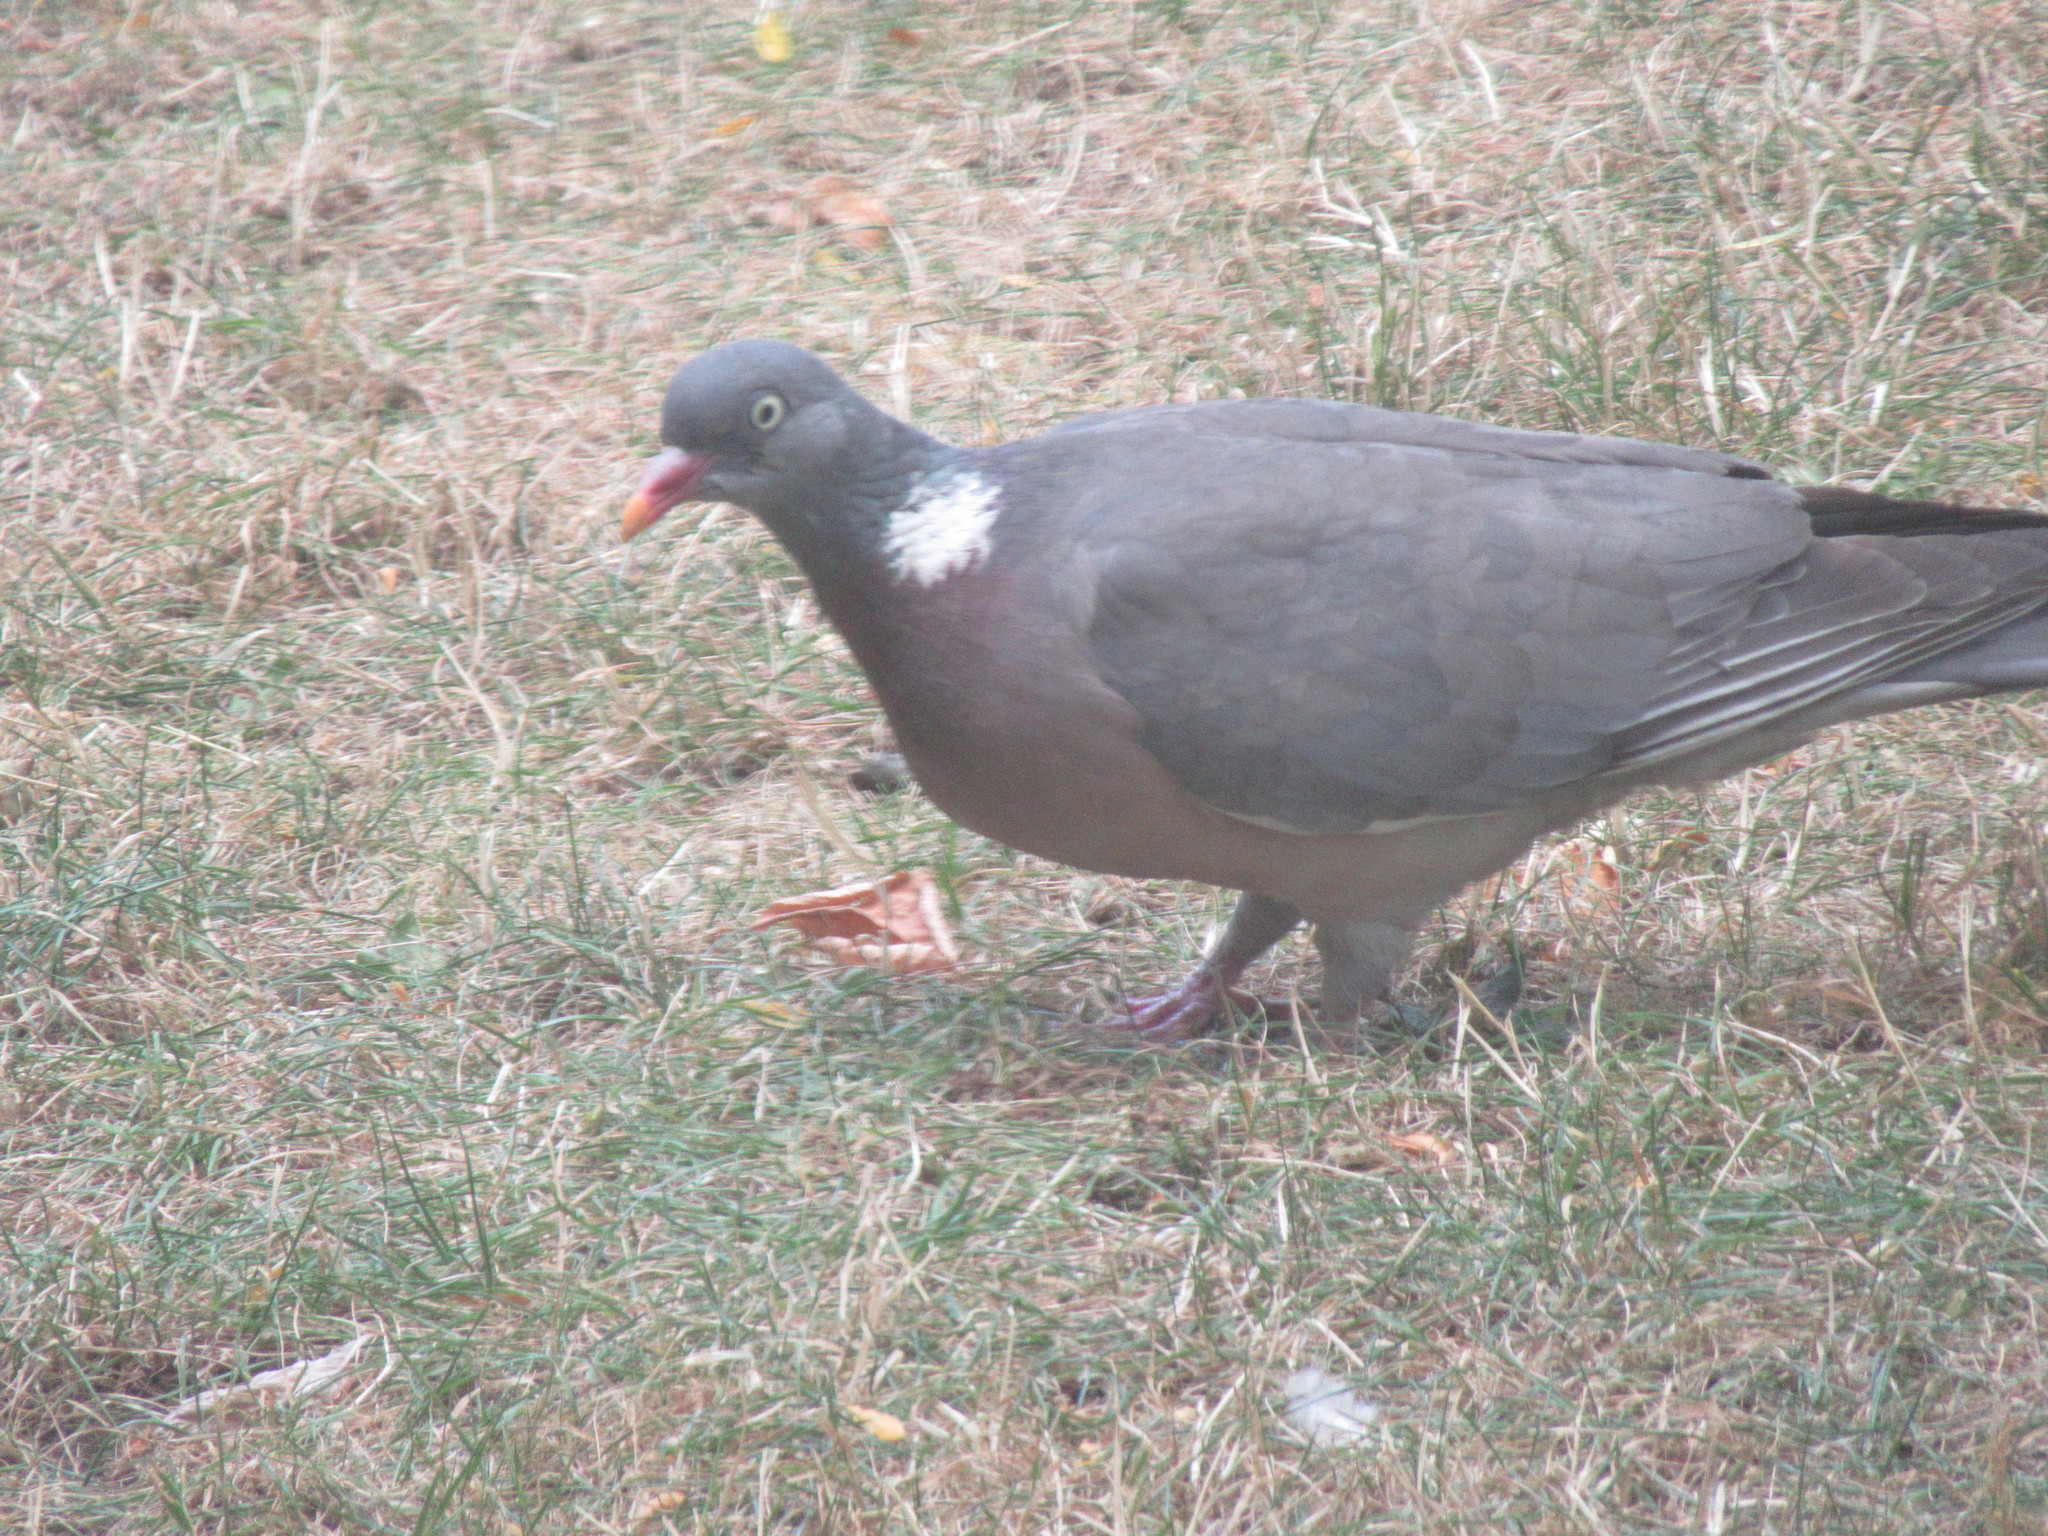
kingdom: Animalia
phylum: Chordata
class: Aves
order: Columbiformes
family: Columbidae
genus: Columba
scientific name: Columba palumbus
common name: Common wood pigeon
